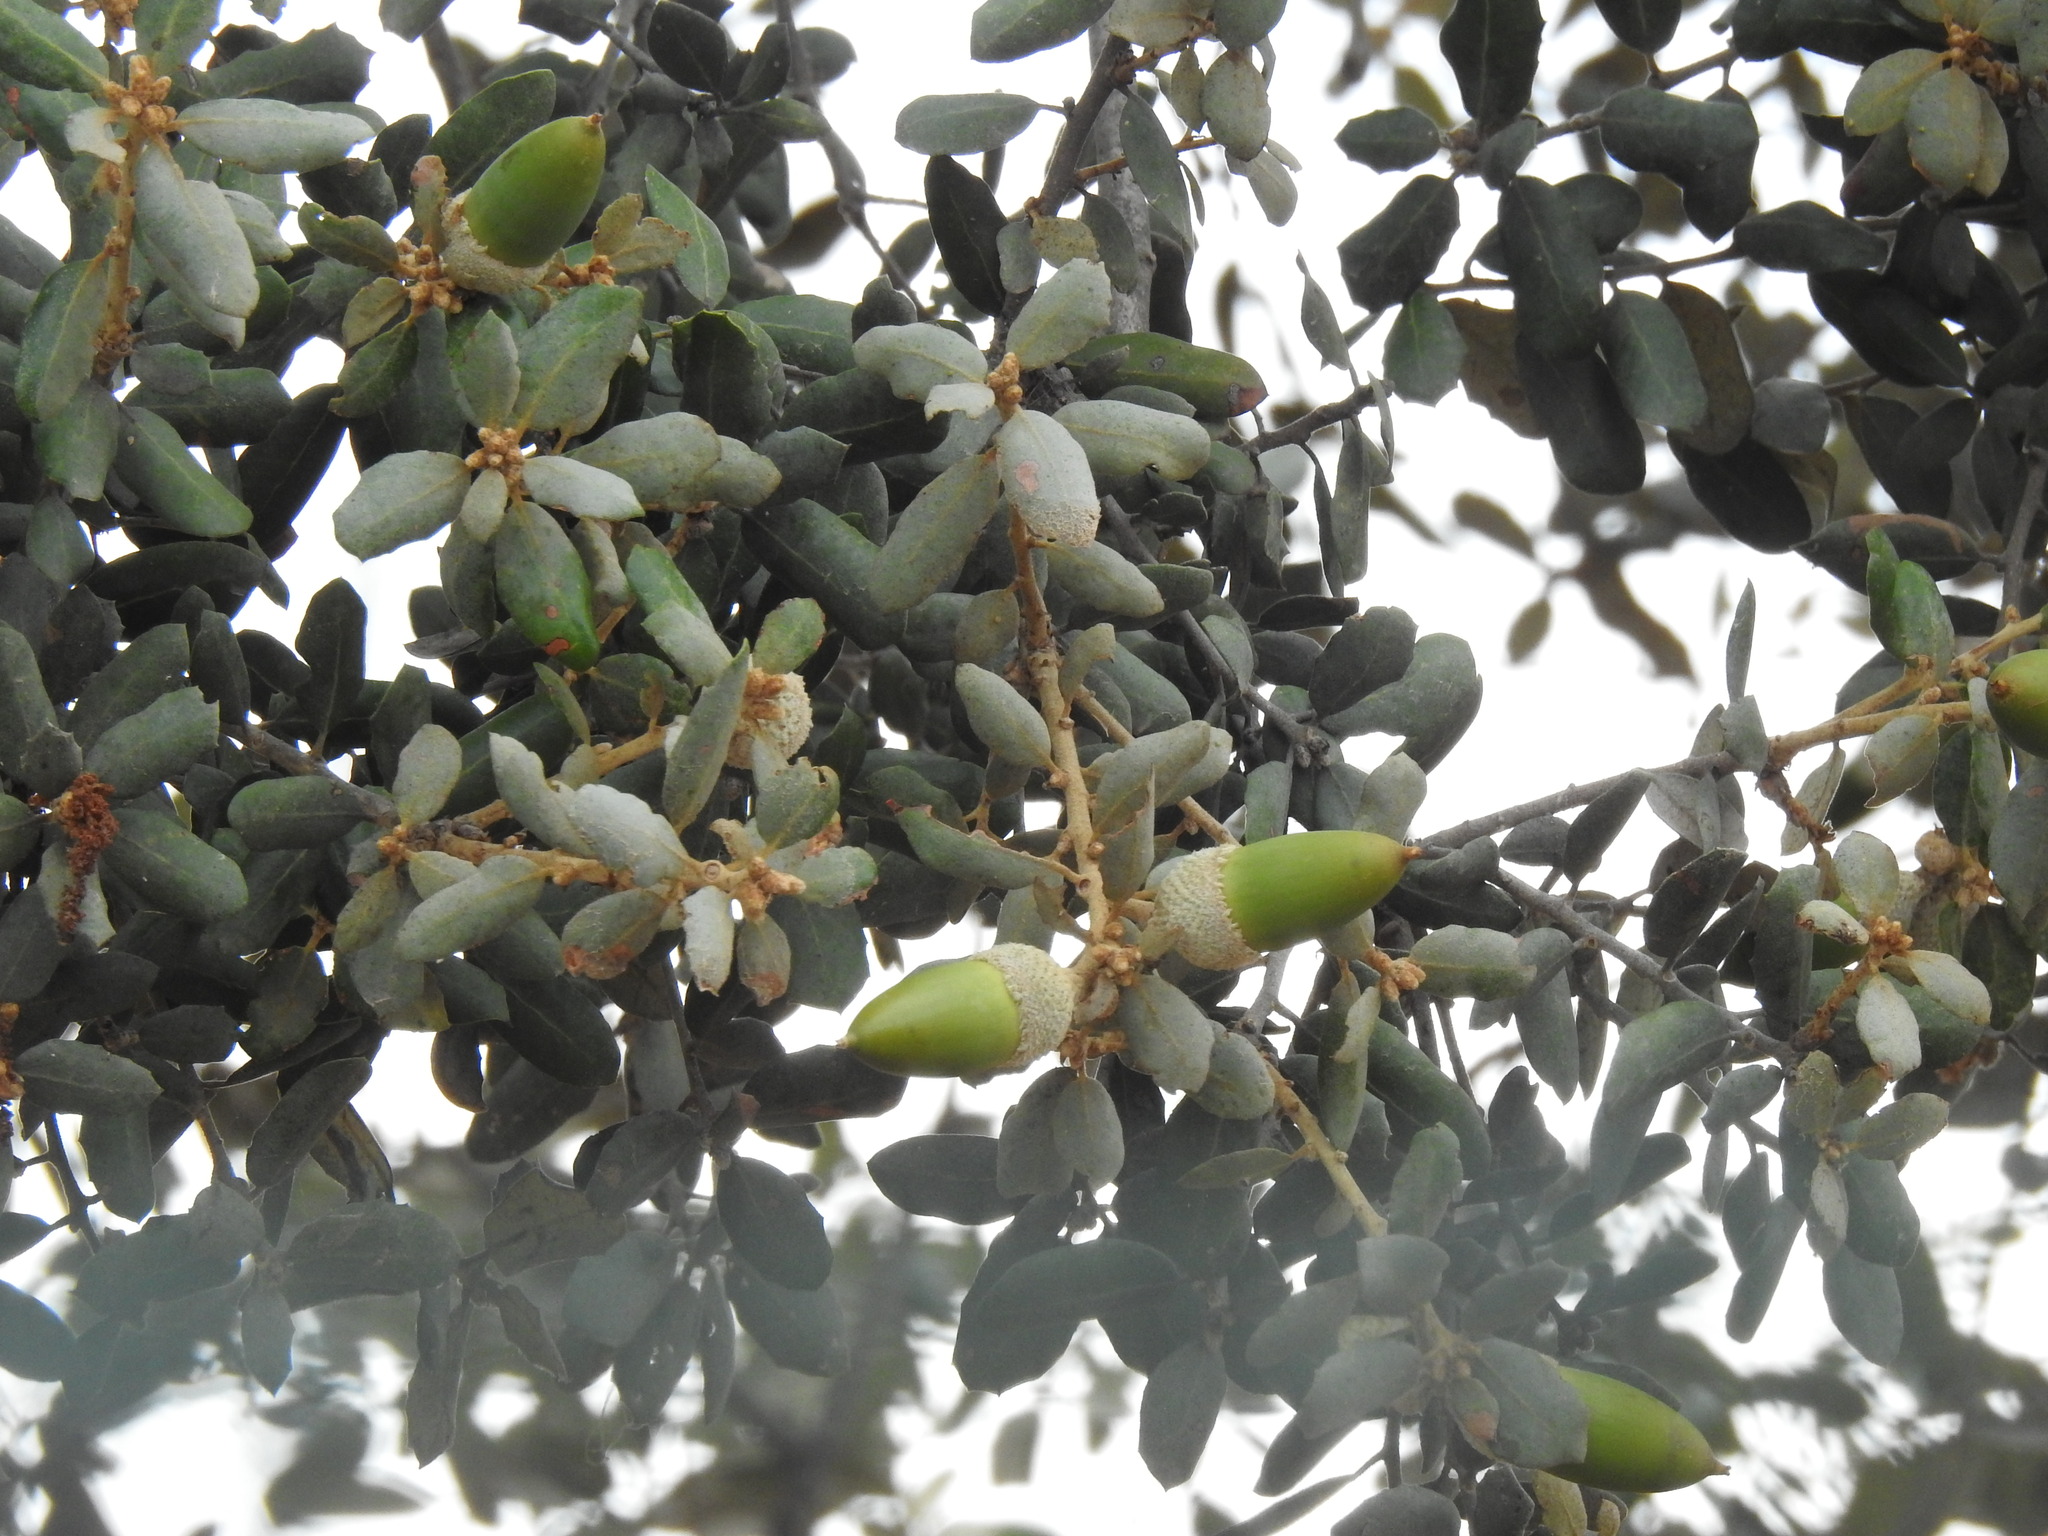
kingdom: Plantae
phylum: Tracheophyta
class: Magnoliopsida
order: Fagales
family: Fagaceae
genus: Quercus
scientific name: Quercus rotundifolia
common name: Holm oak
